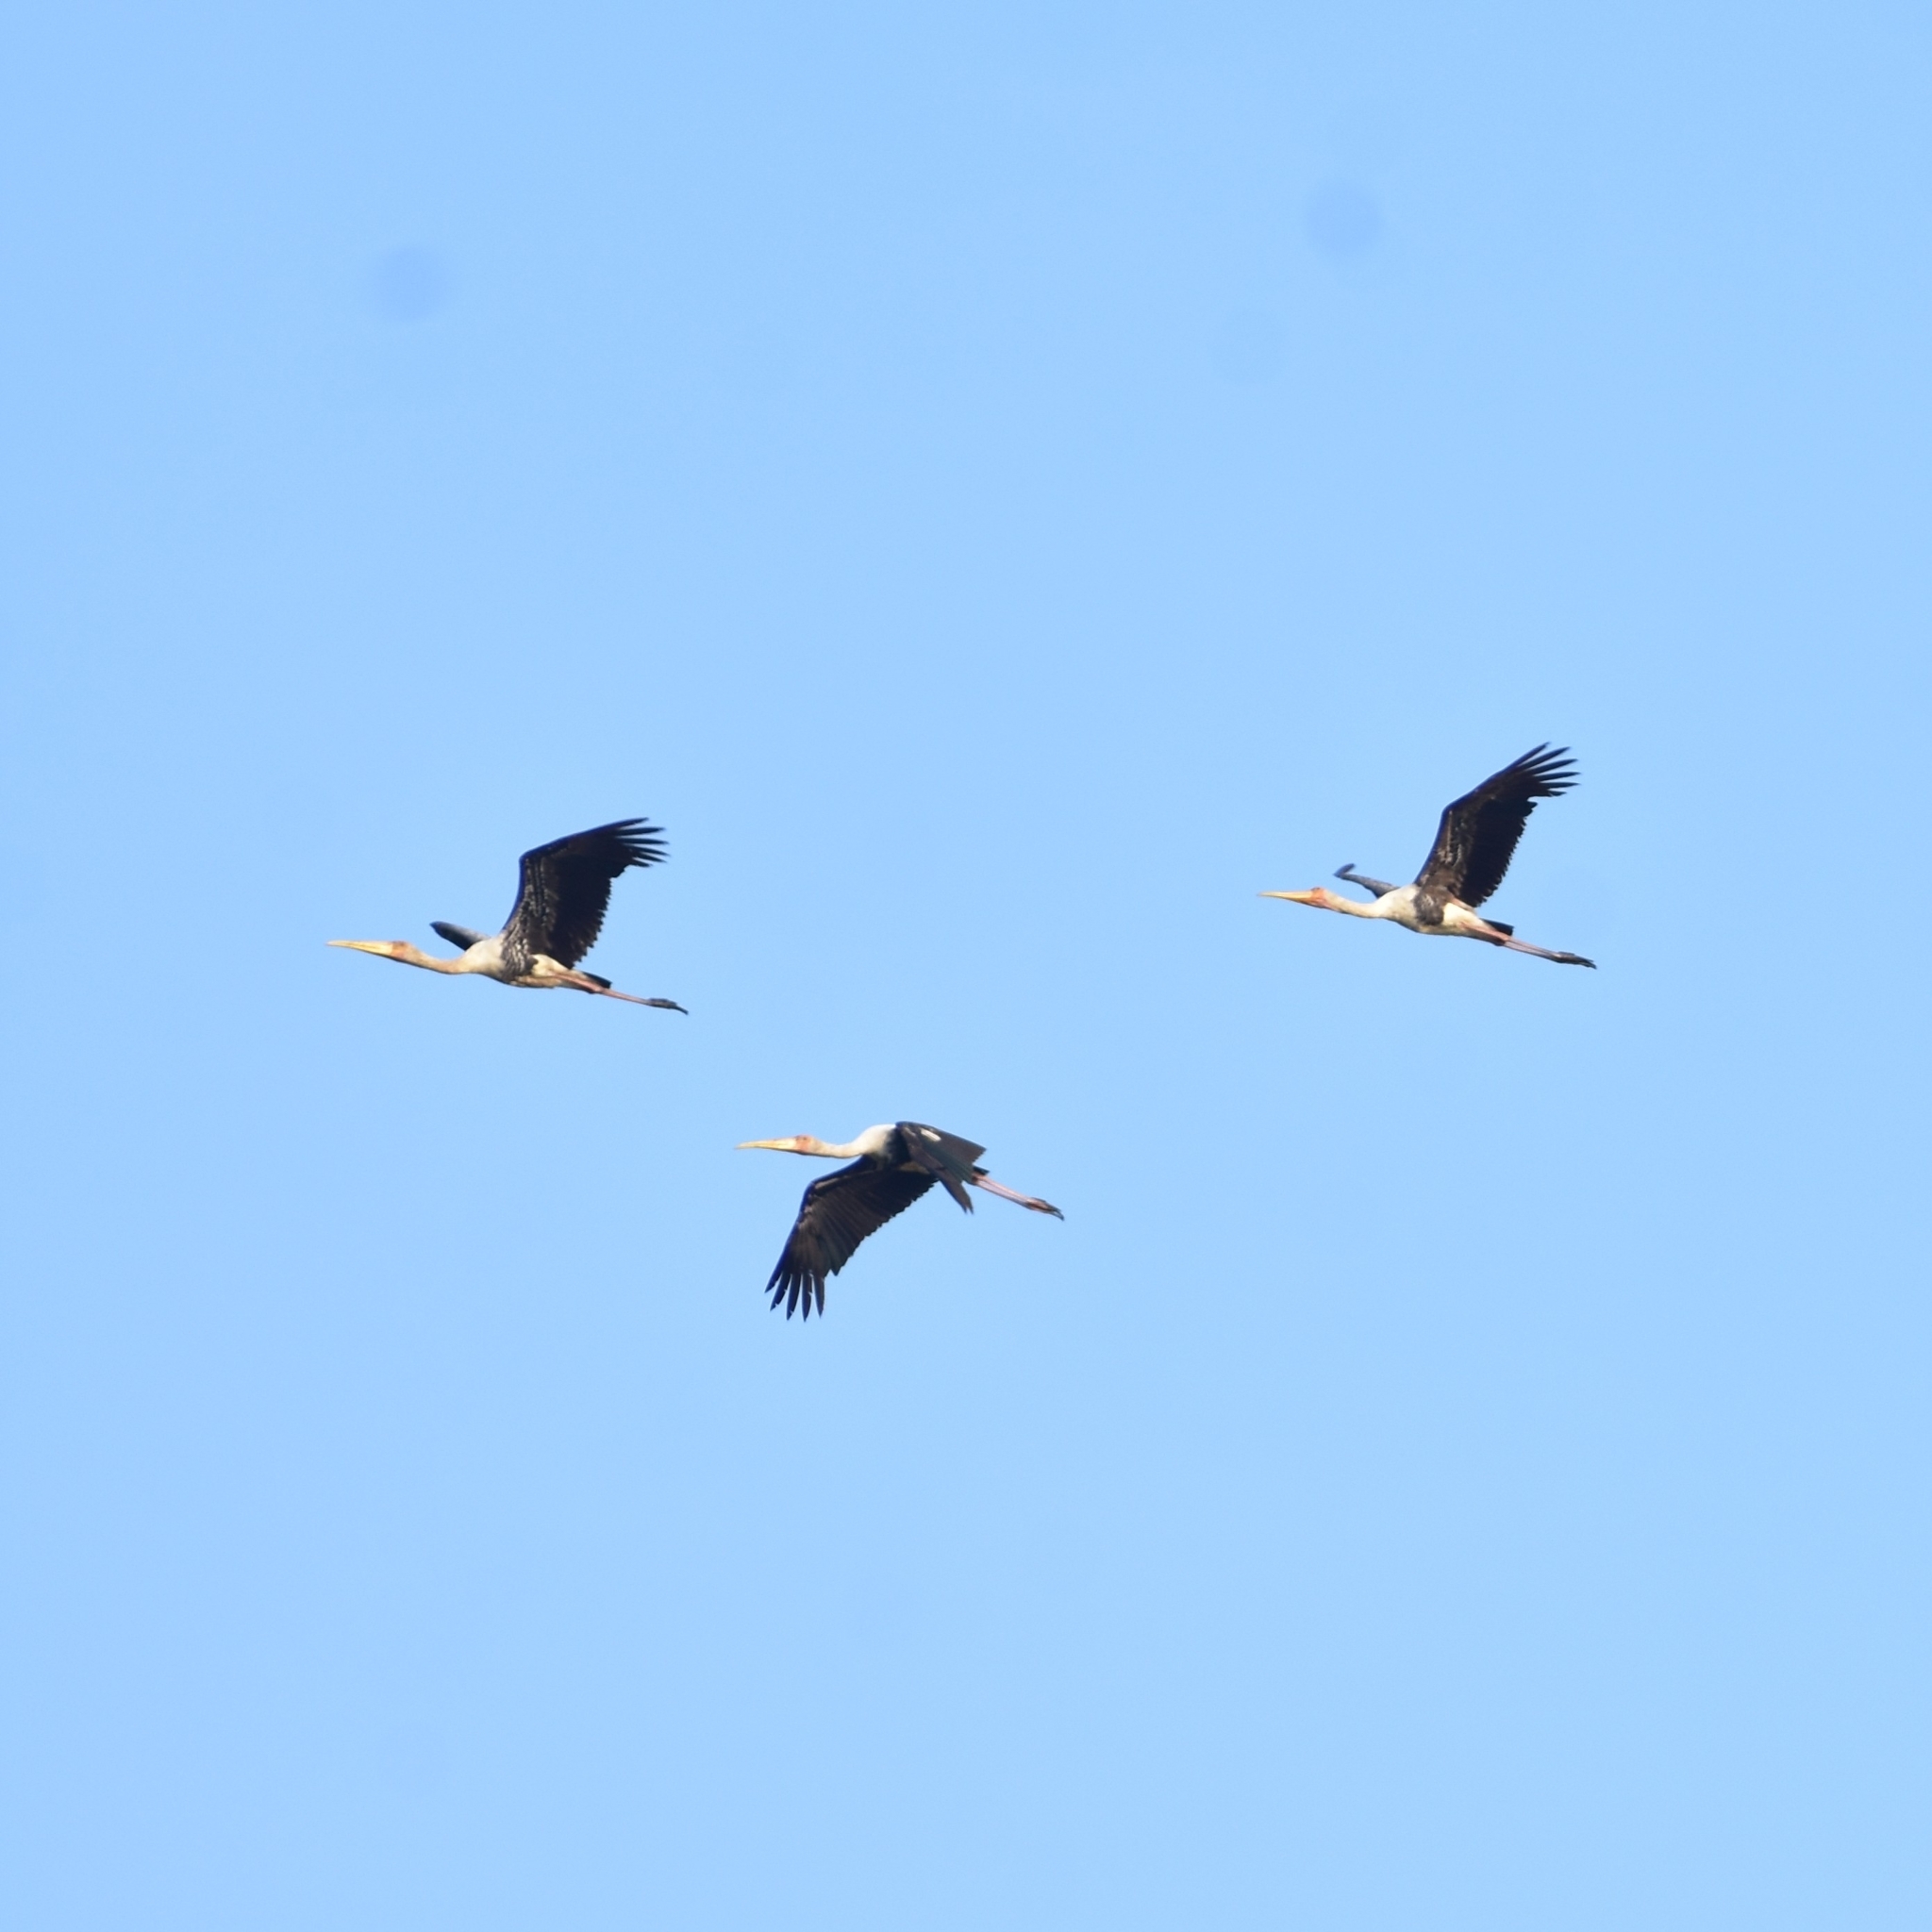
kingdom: Animalia
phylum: Chordata
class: Aves
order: Ciconiiformes
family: Ciconiidae
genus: Mycteria
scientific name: Mycteria leucocephala
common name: Painted stork
